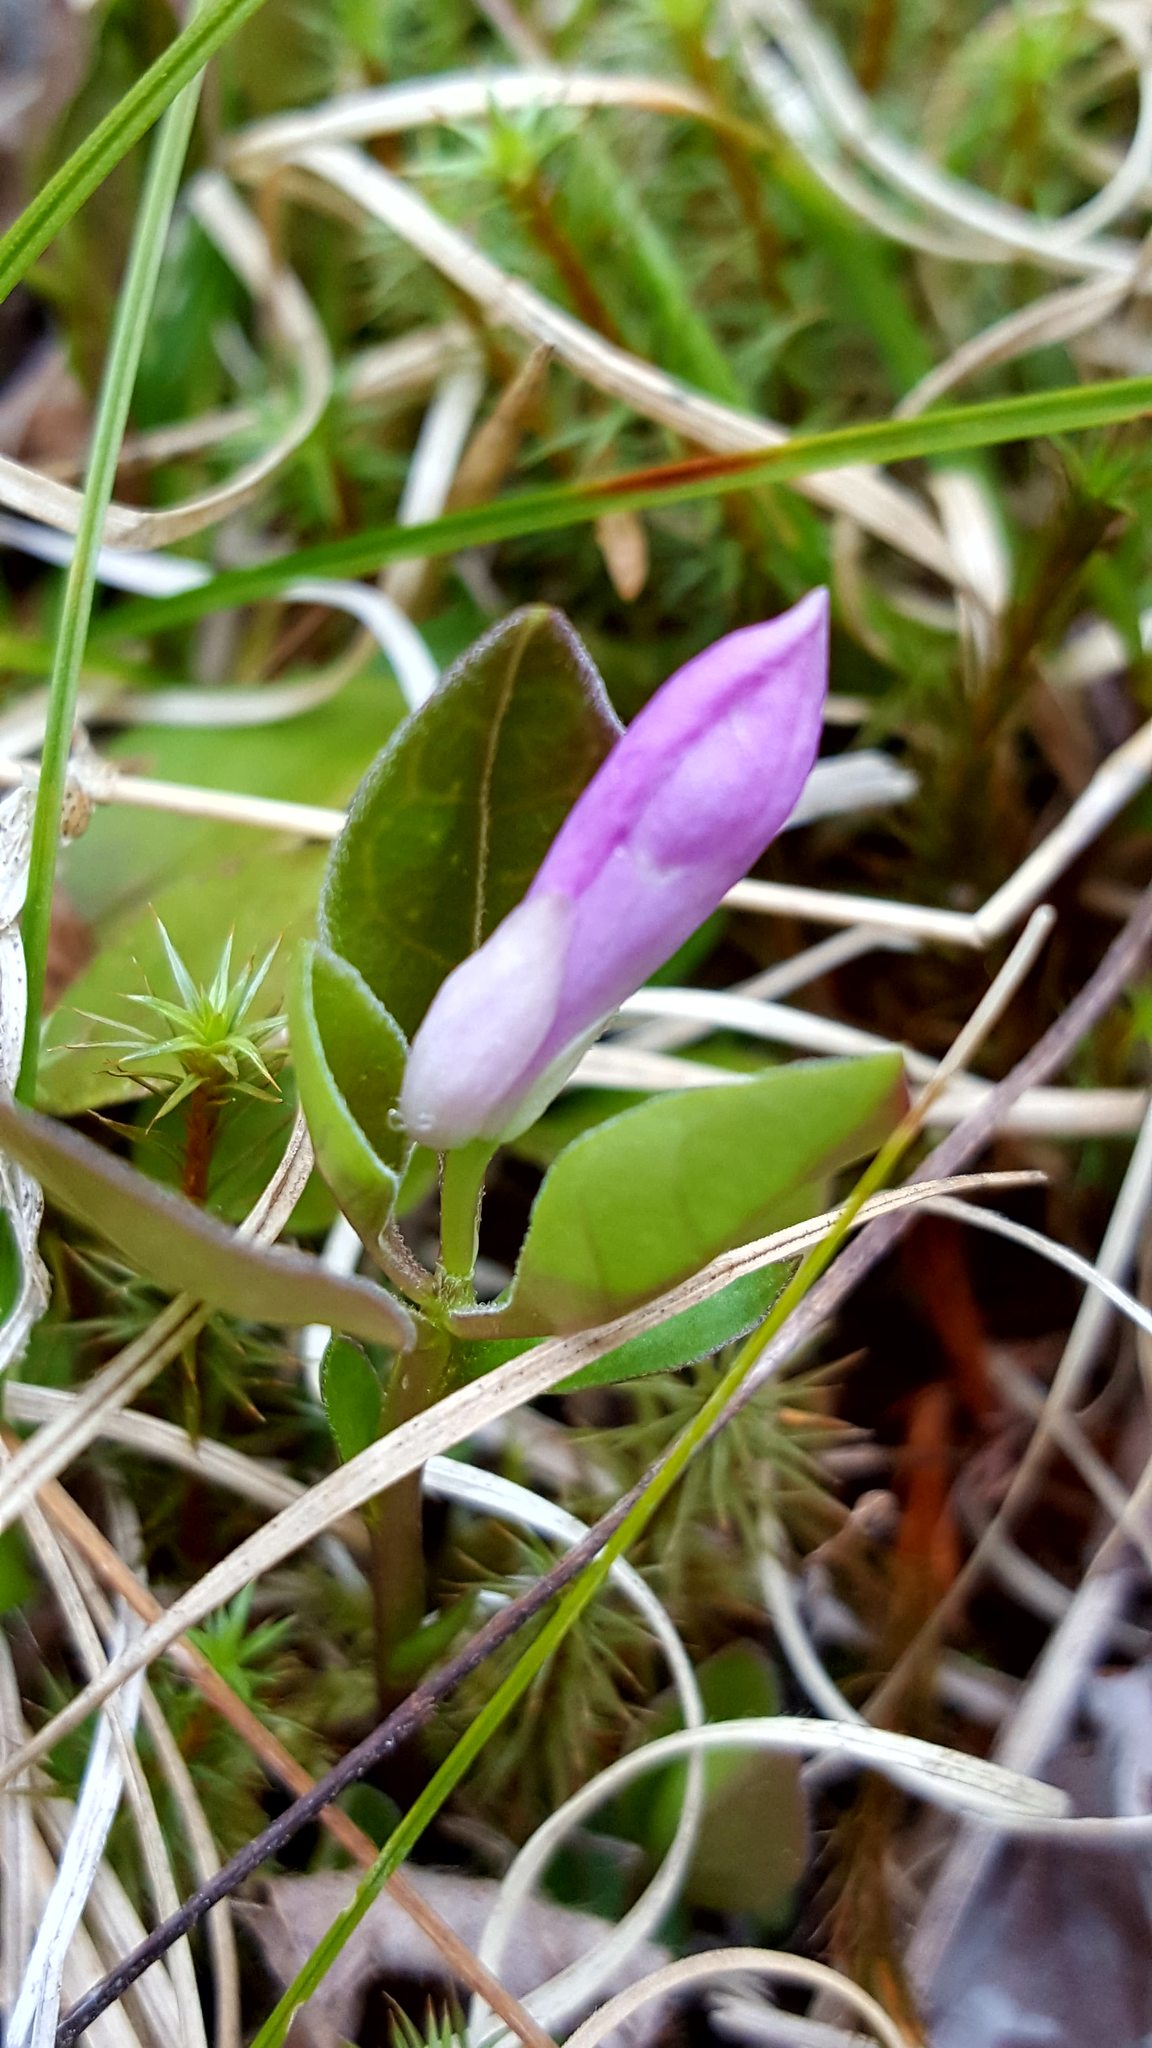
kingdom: Plantae
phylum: Tracheophyta
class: Magnoliopsida
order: Fabales
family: Polygalaceae
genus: Polygaloides
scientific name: Polygaloides paucifolia
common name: Bird-on-the-wing
